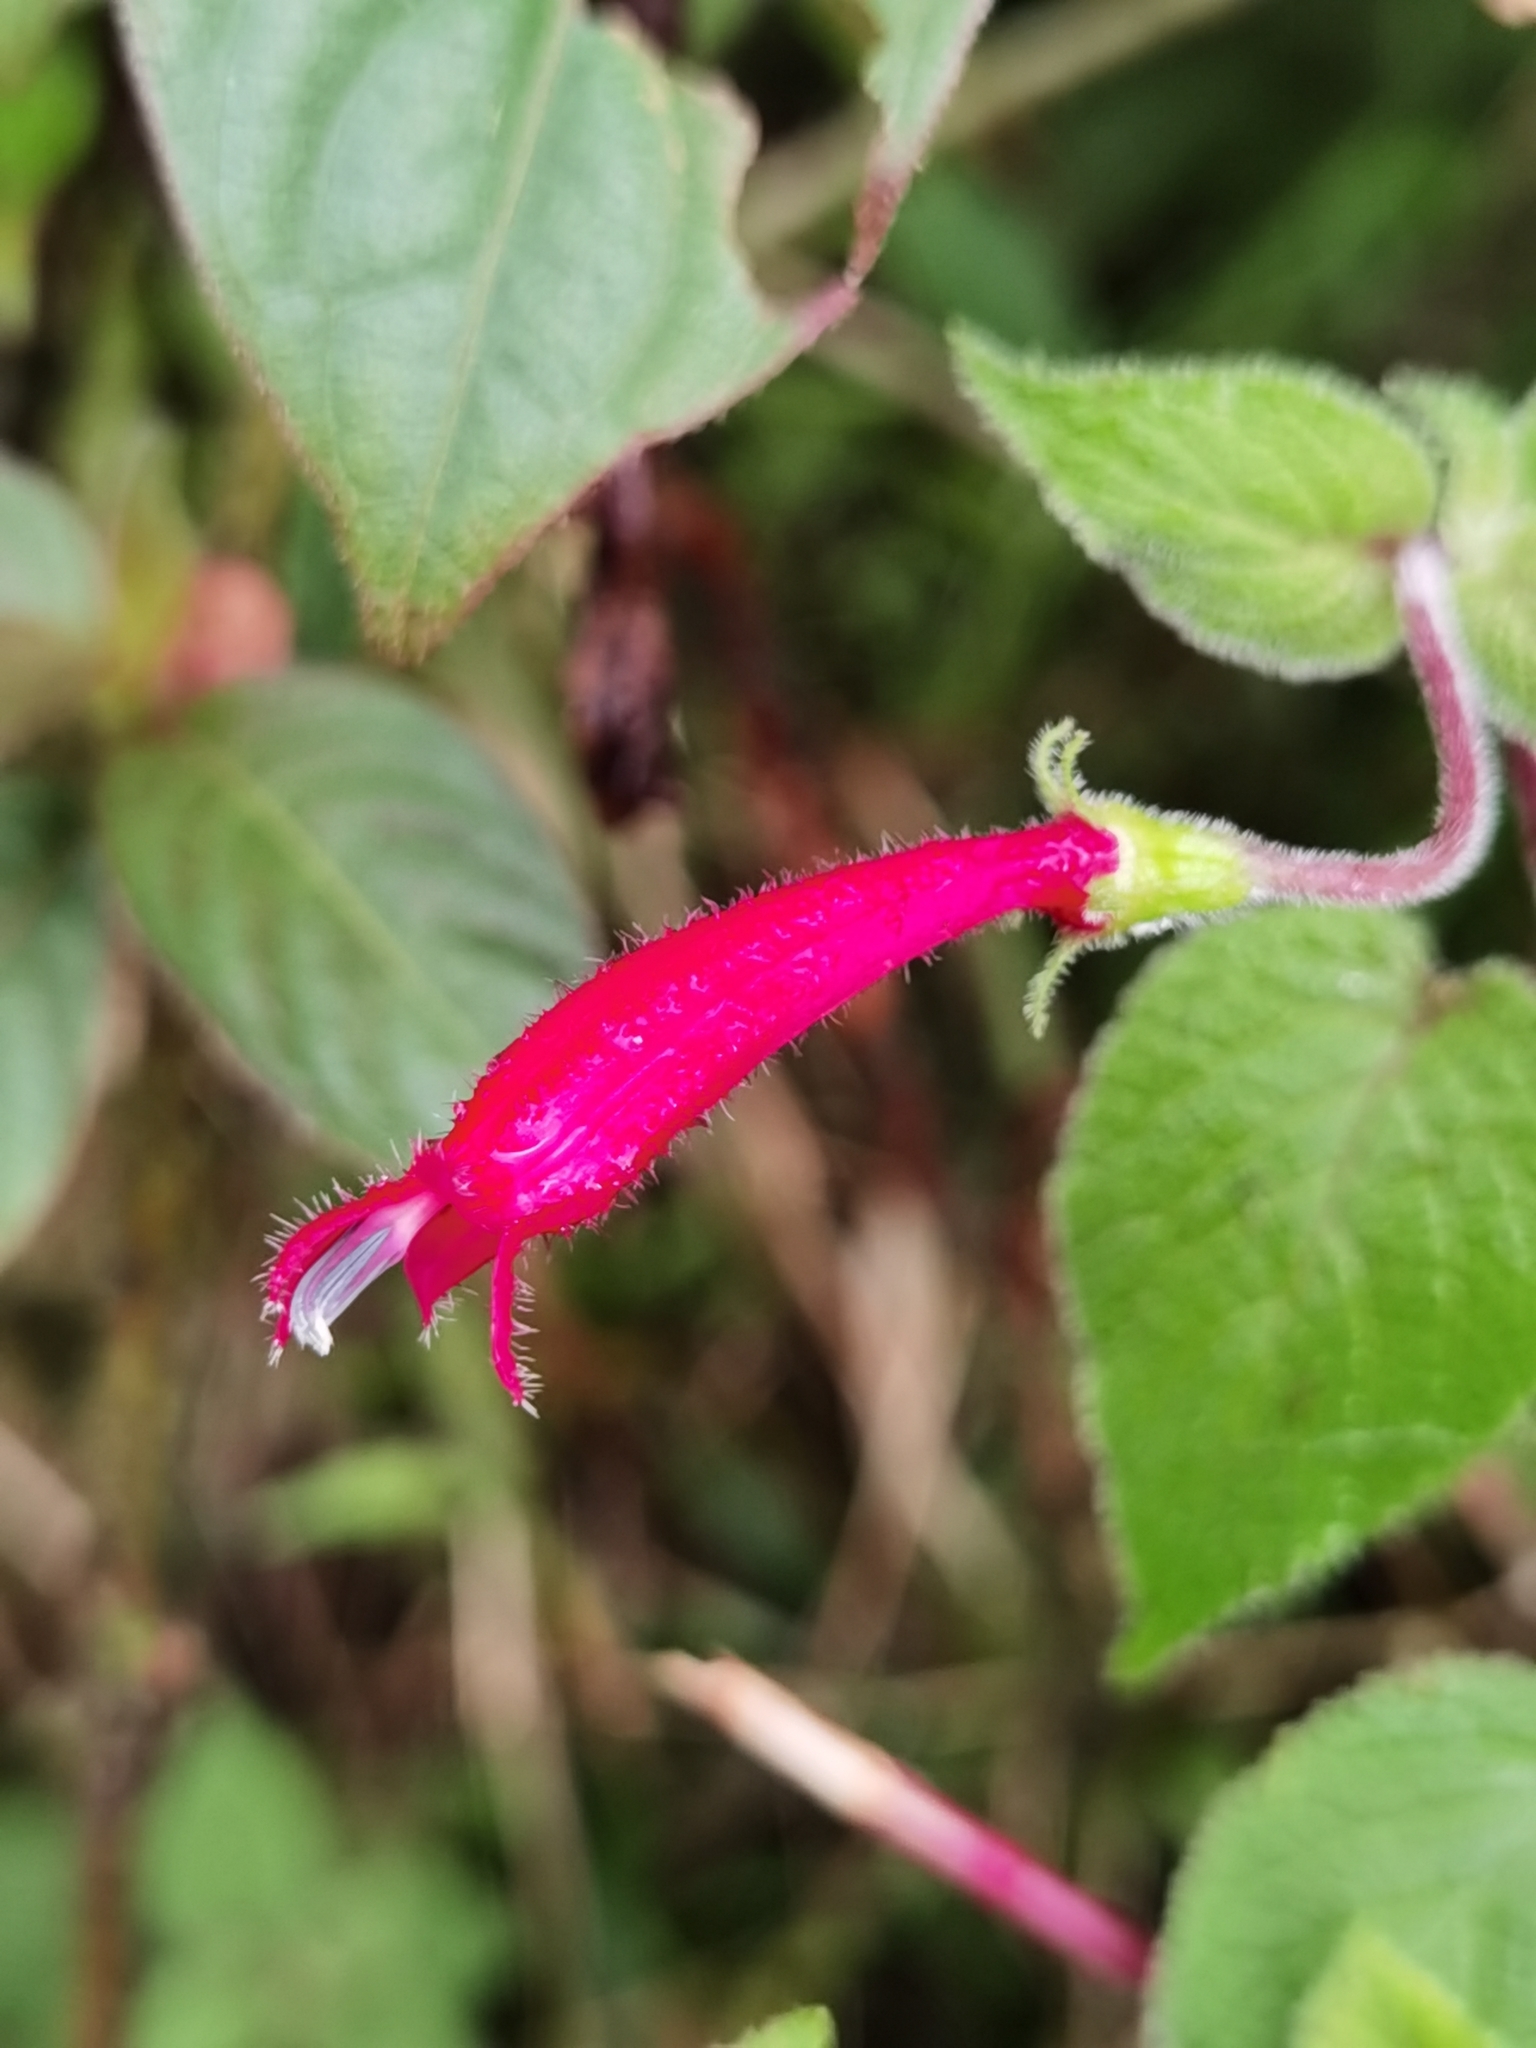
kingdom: Plantae
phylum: Tracheophyta
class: Magnoliopsida
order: Asterales
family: Campanulaceae
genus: Centropogon
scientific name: Centropogon palmanus
